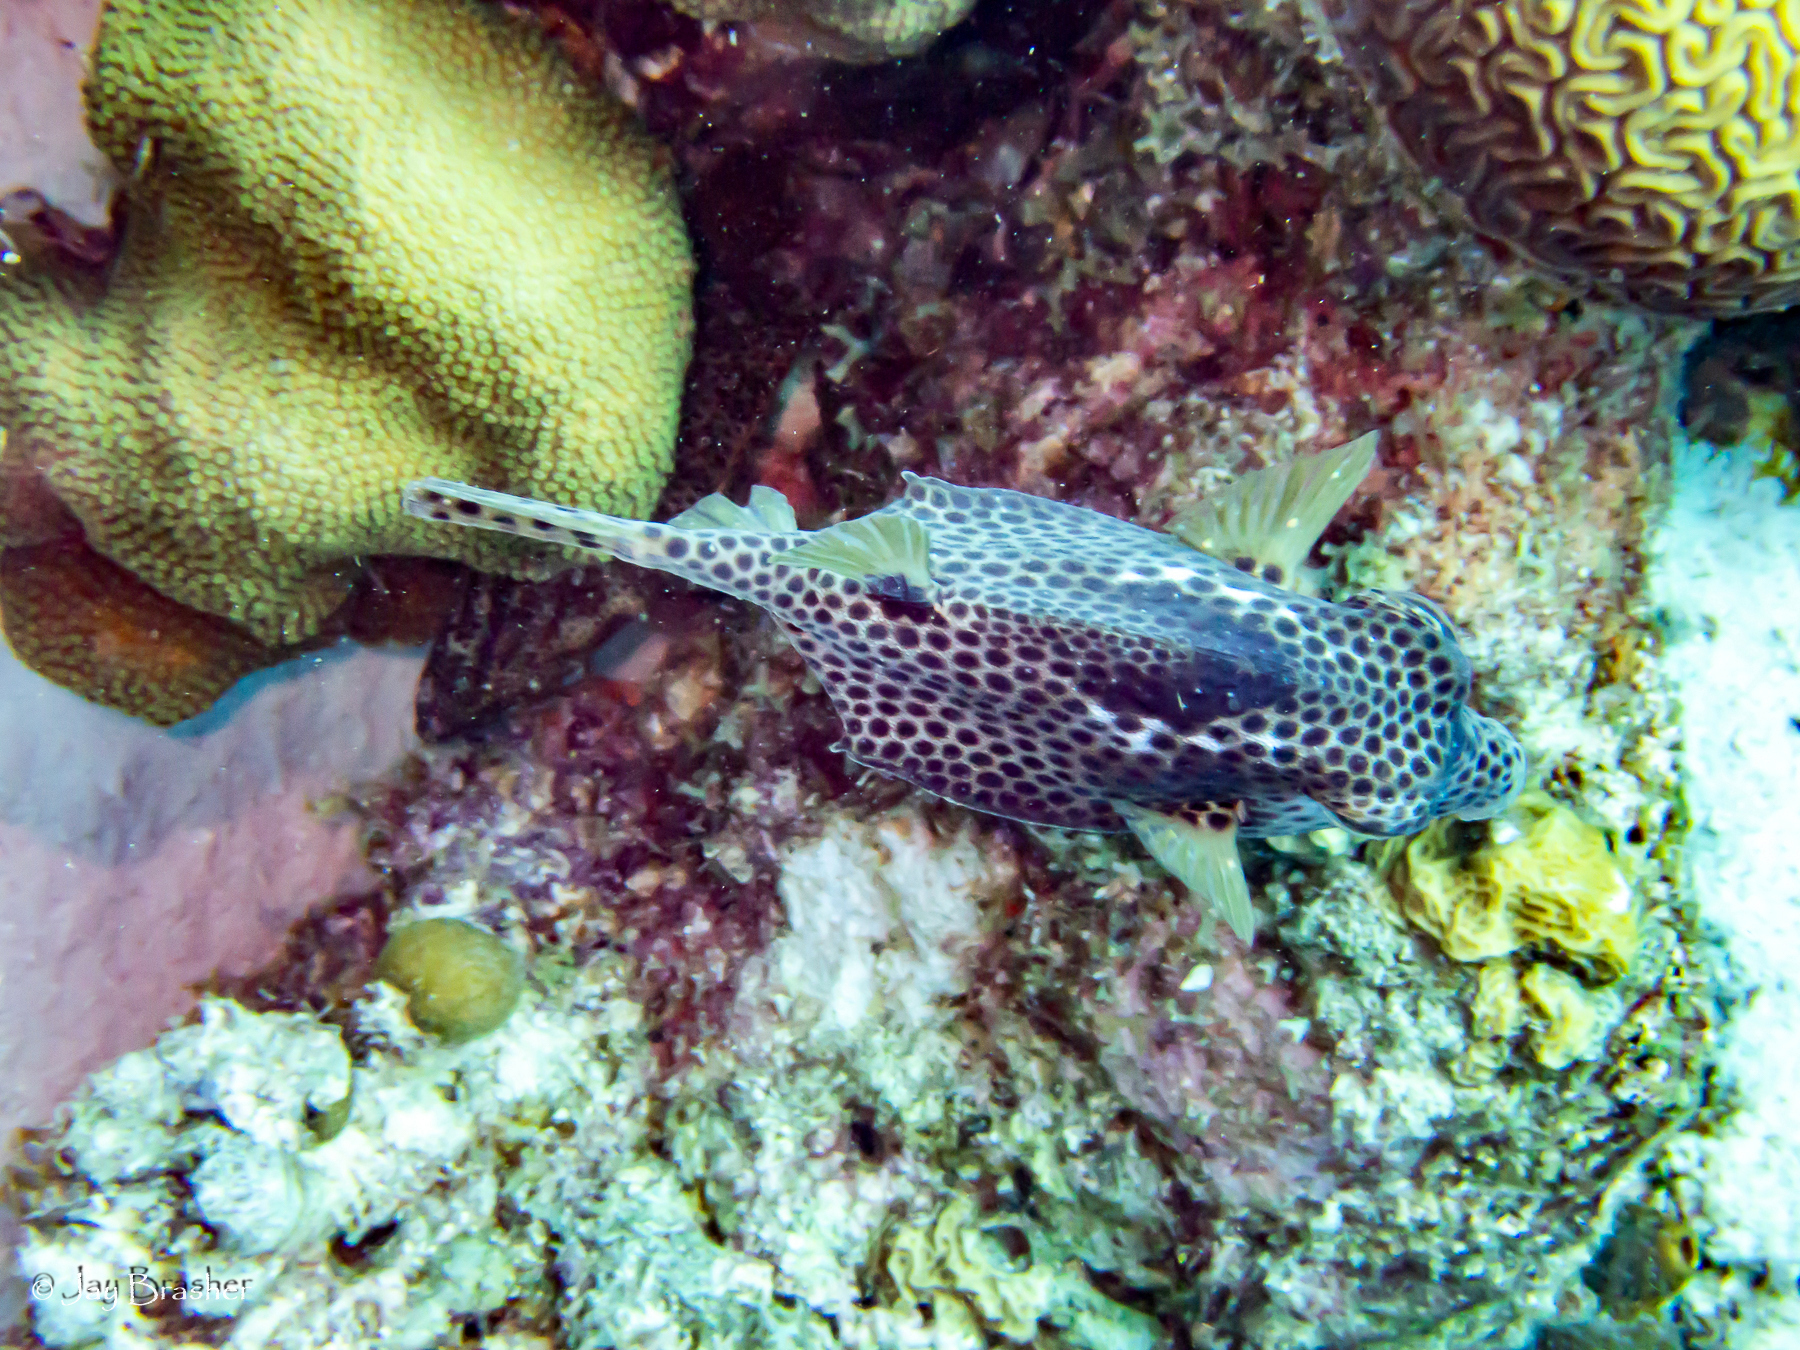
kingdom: Animalia
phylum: Chordata
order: Tetraodontiformes
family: Ostraciidae
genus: Lactophrys
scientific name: Lactophrys bicaudalis
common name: Spotted trunkfish
